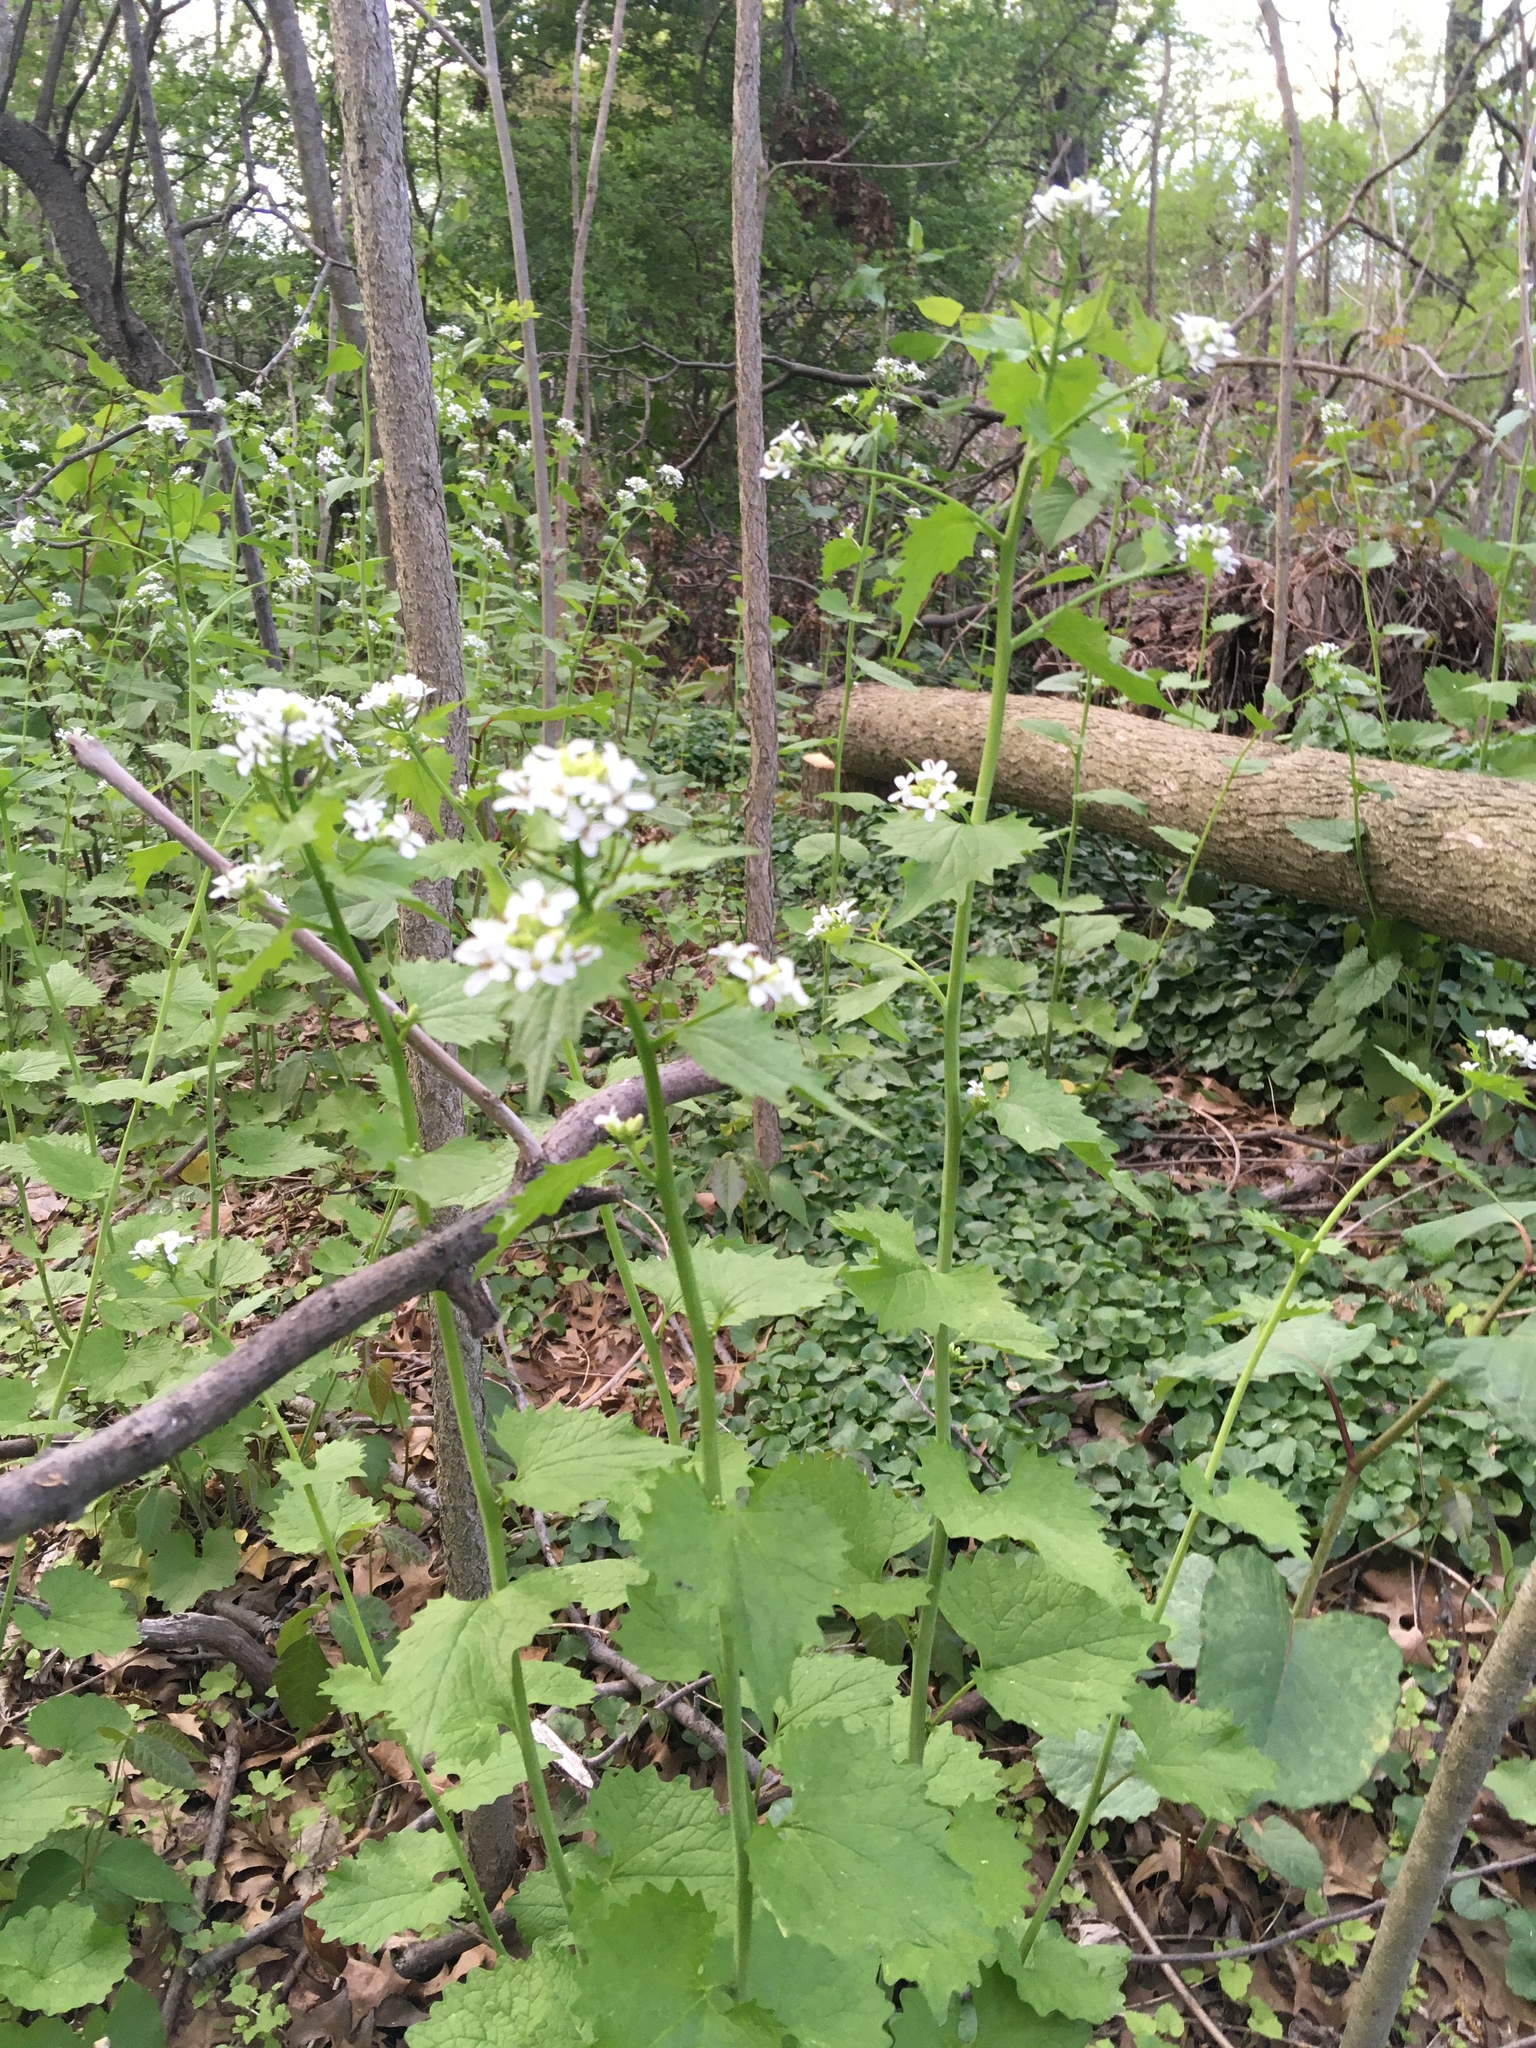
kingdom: Plantae
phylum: Tracheophyta
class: Magnoliopsida
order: Brassicales
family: Brassicaceae
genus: Alliaria
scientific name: Alliaria petiolata
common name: Garlic mustard
